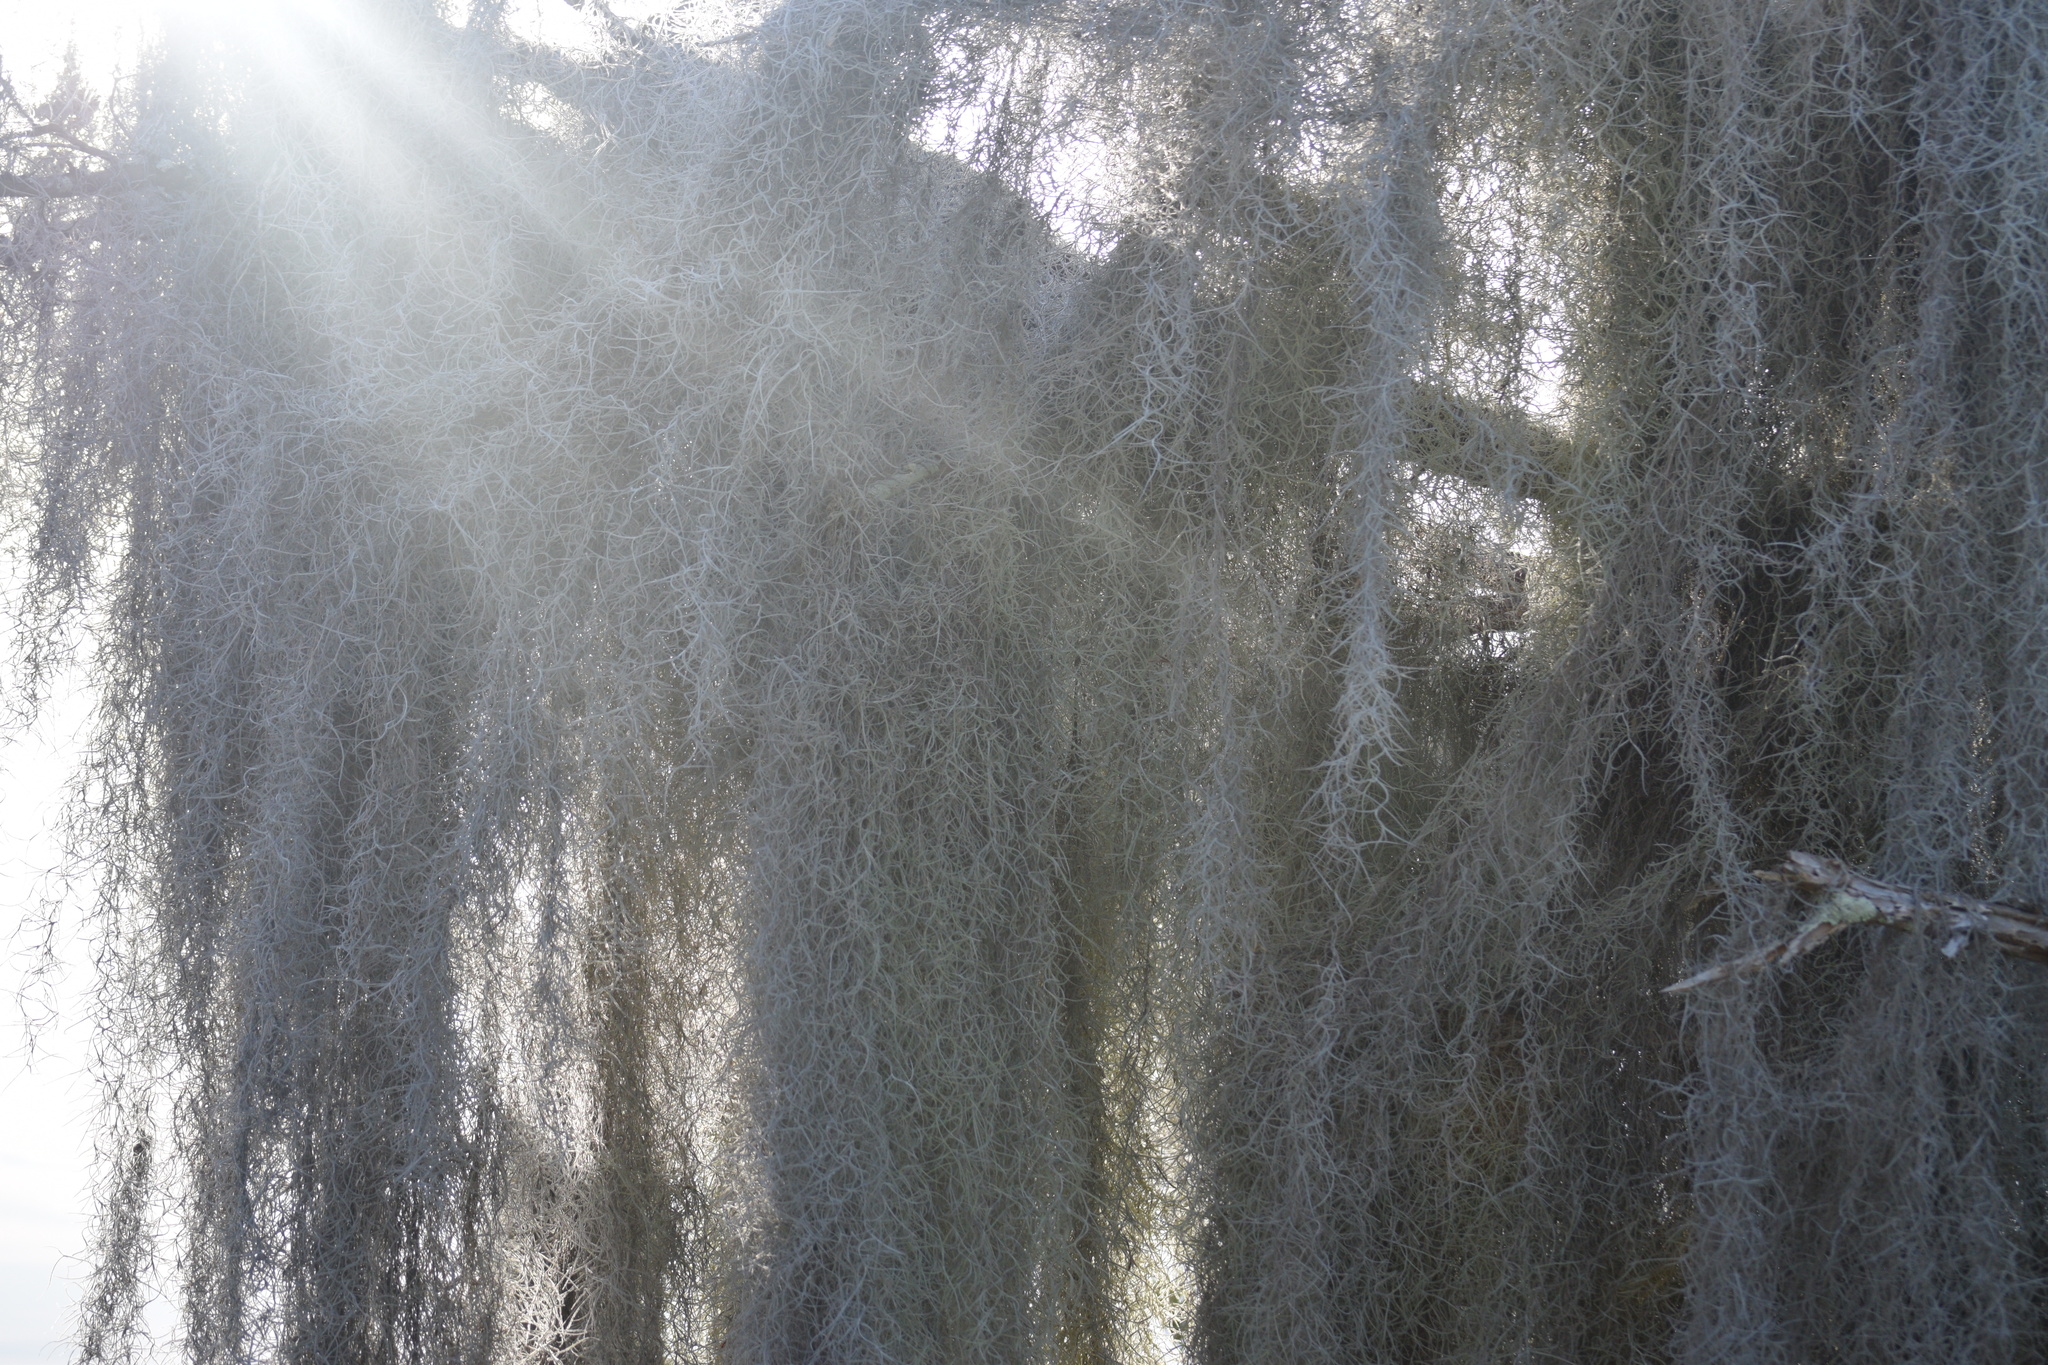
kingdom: Plantae
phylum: Tracheophyta
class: Liliopsida
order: Poales
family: Bromeliaceae
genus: Tillandsia
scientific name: Tillandsia usneoides
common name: Spanish moss
